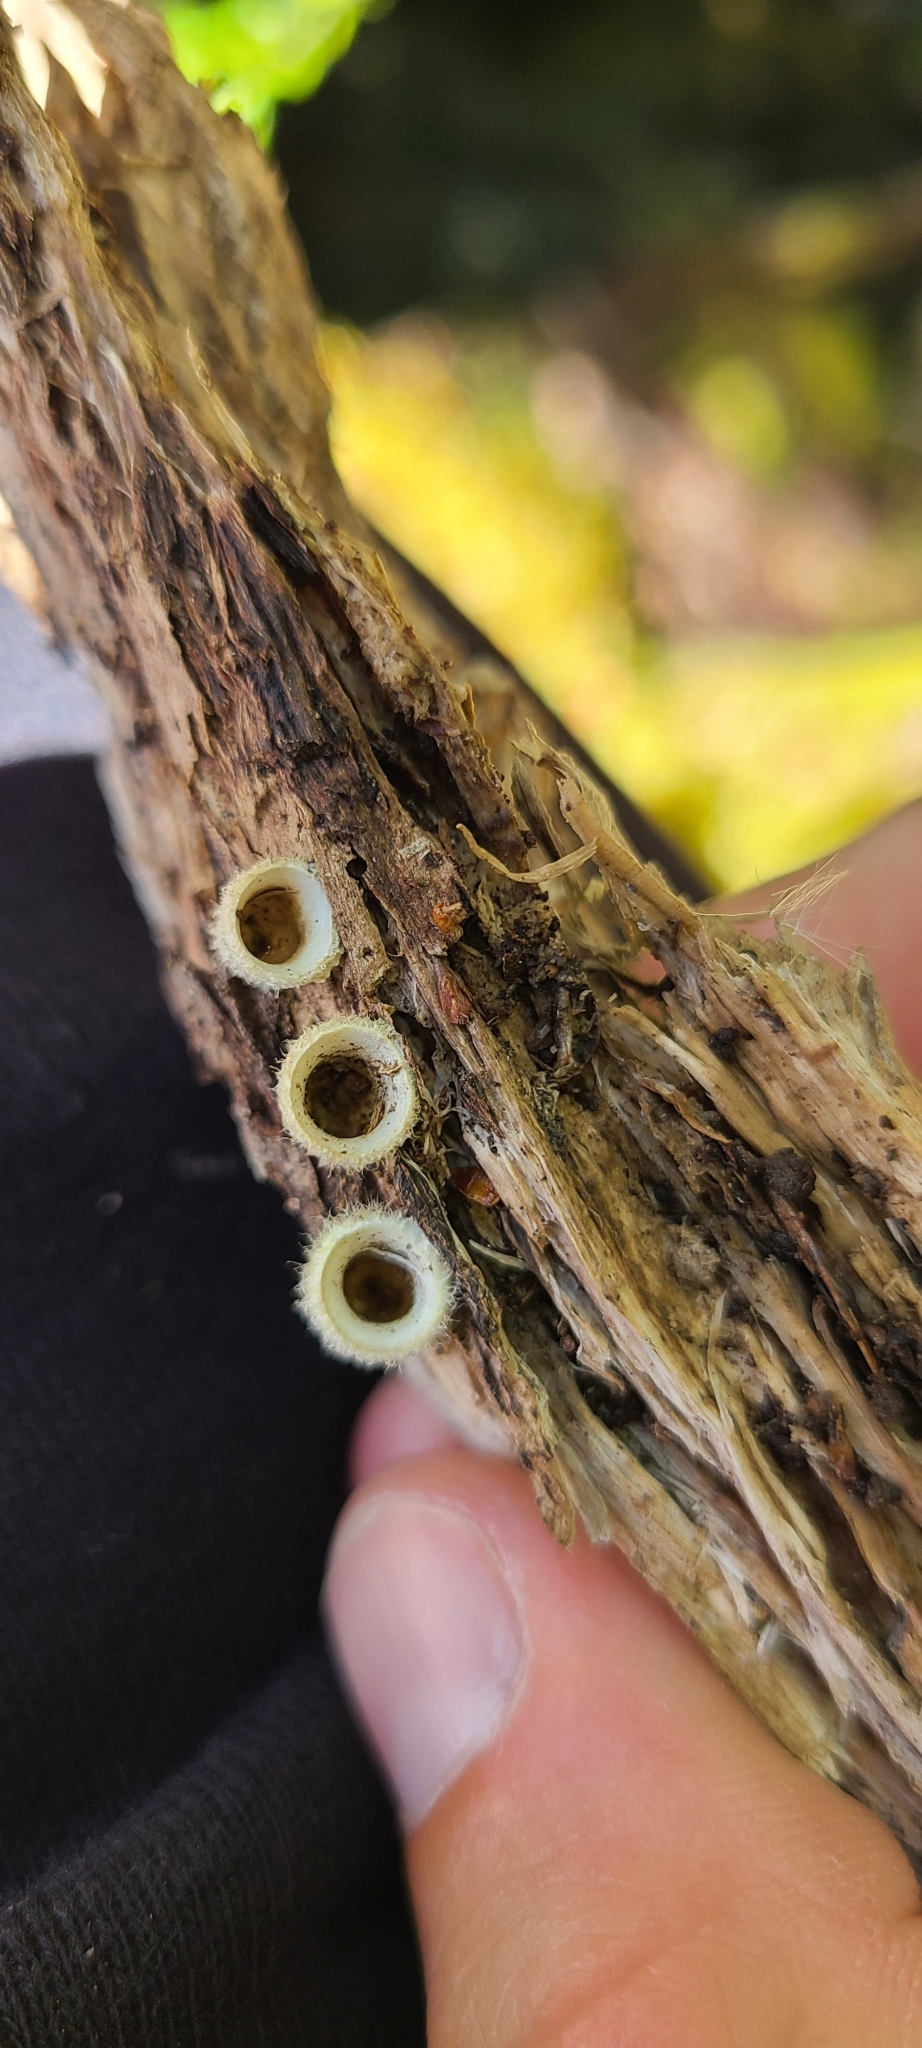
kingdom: Fungi
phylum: Basidiomycota
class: Agaricomycetes
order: Agaricales
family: Agaricaceae
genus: Nidula
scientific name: Nidula niveotomentosa
